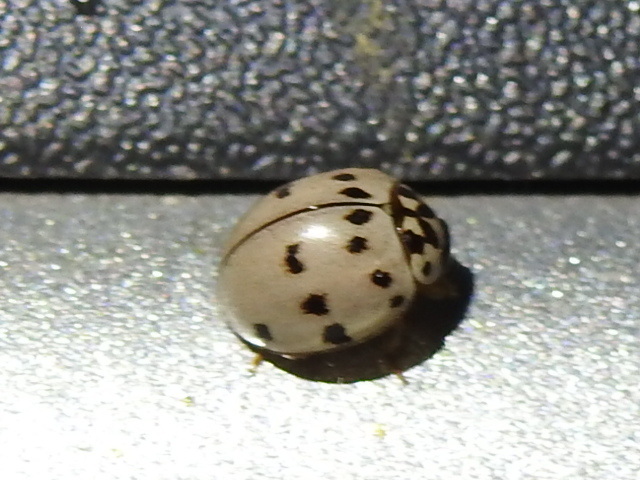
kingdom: Animalia
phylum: Arthropoda
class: Insecta
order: Coleoptera
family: Coccinellidae
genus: Olla
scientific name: Olla v-nigrum
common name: Ashy gray lady beetle
